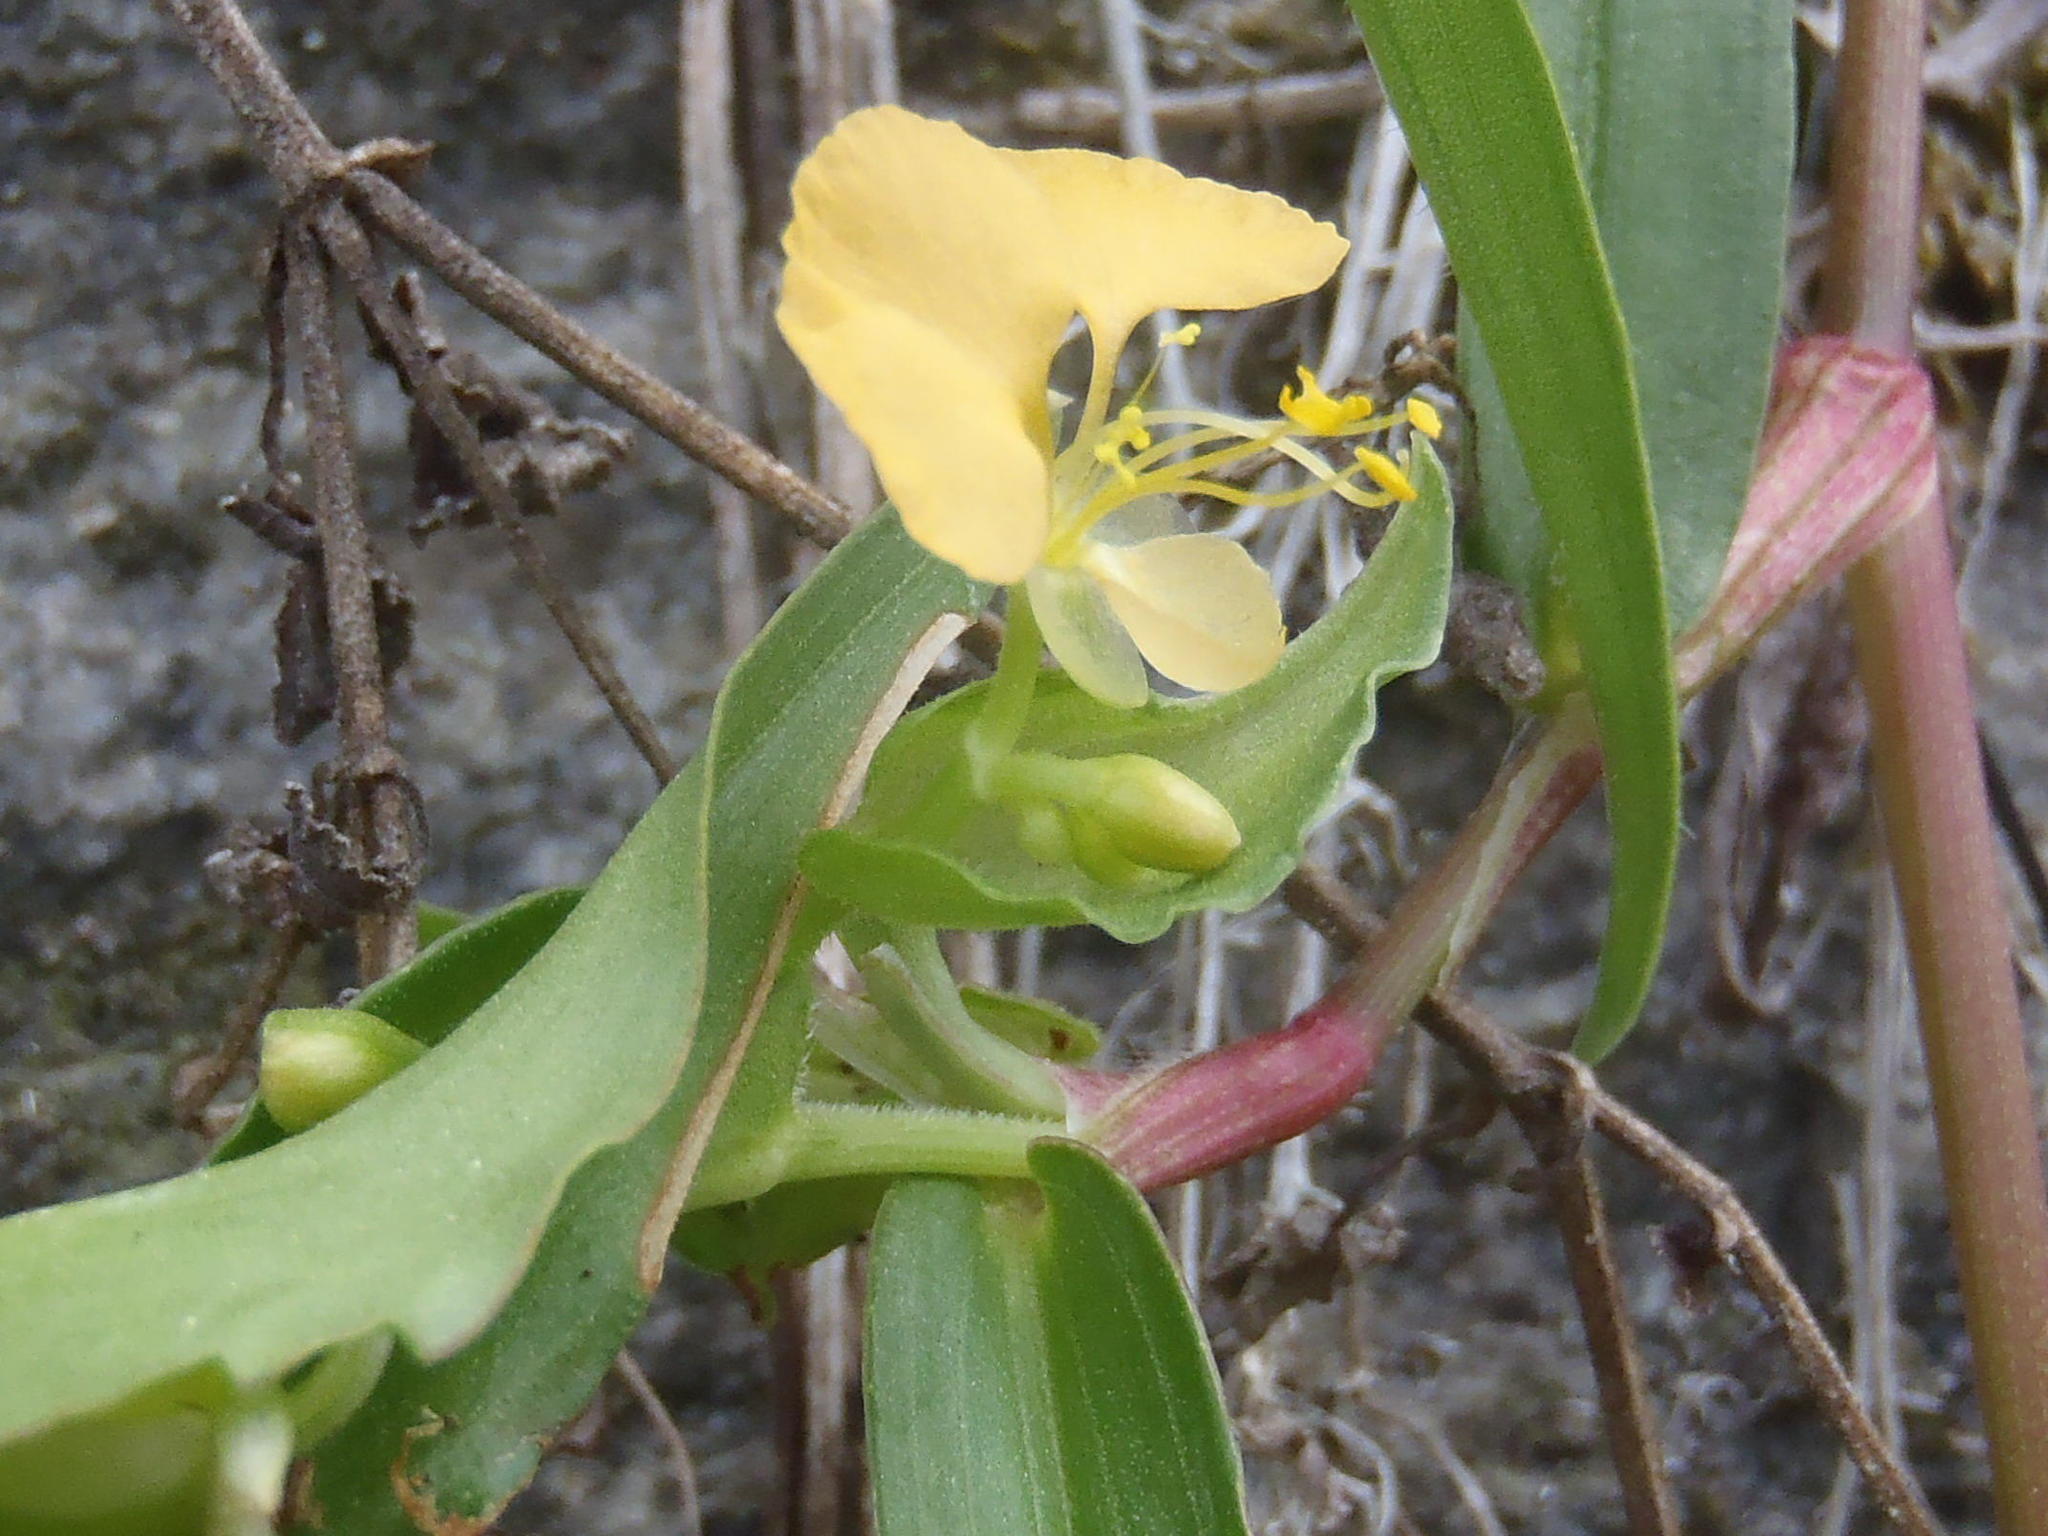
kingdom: Plantae
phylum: Tracheophyta
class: Liliopsida
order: Commelinales
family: Commelinaceae
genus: Commelina
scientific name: Commelina africana
